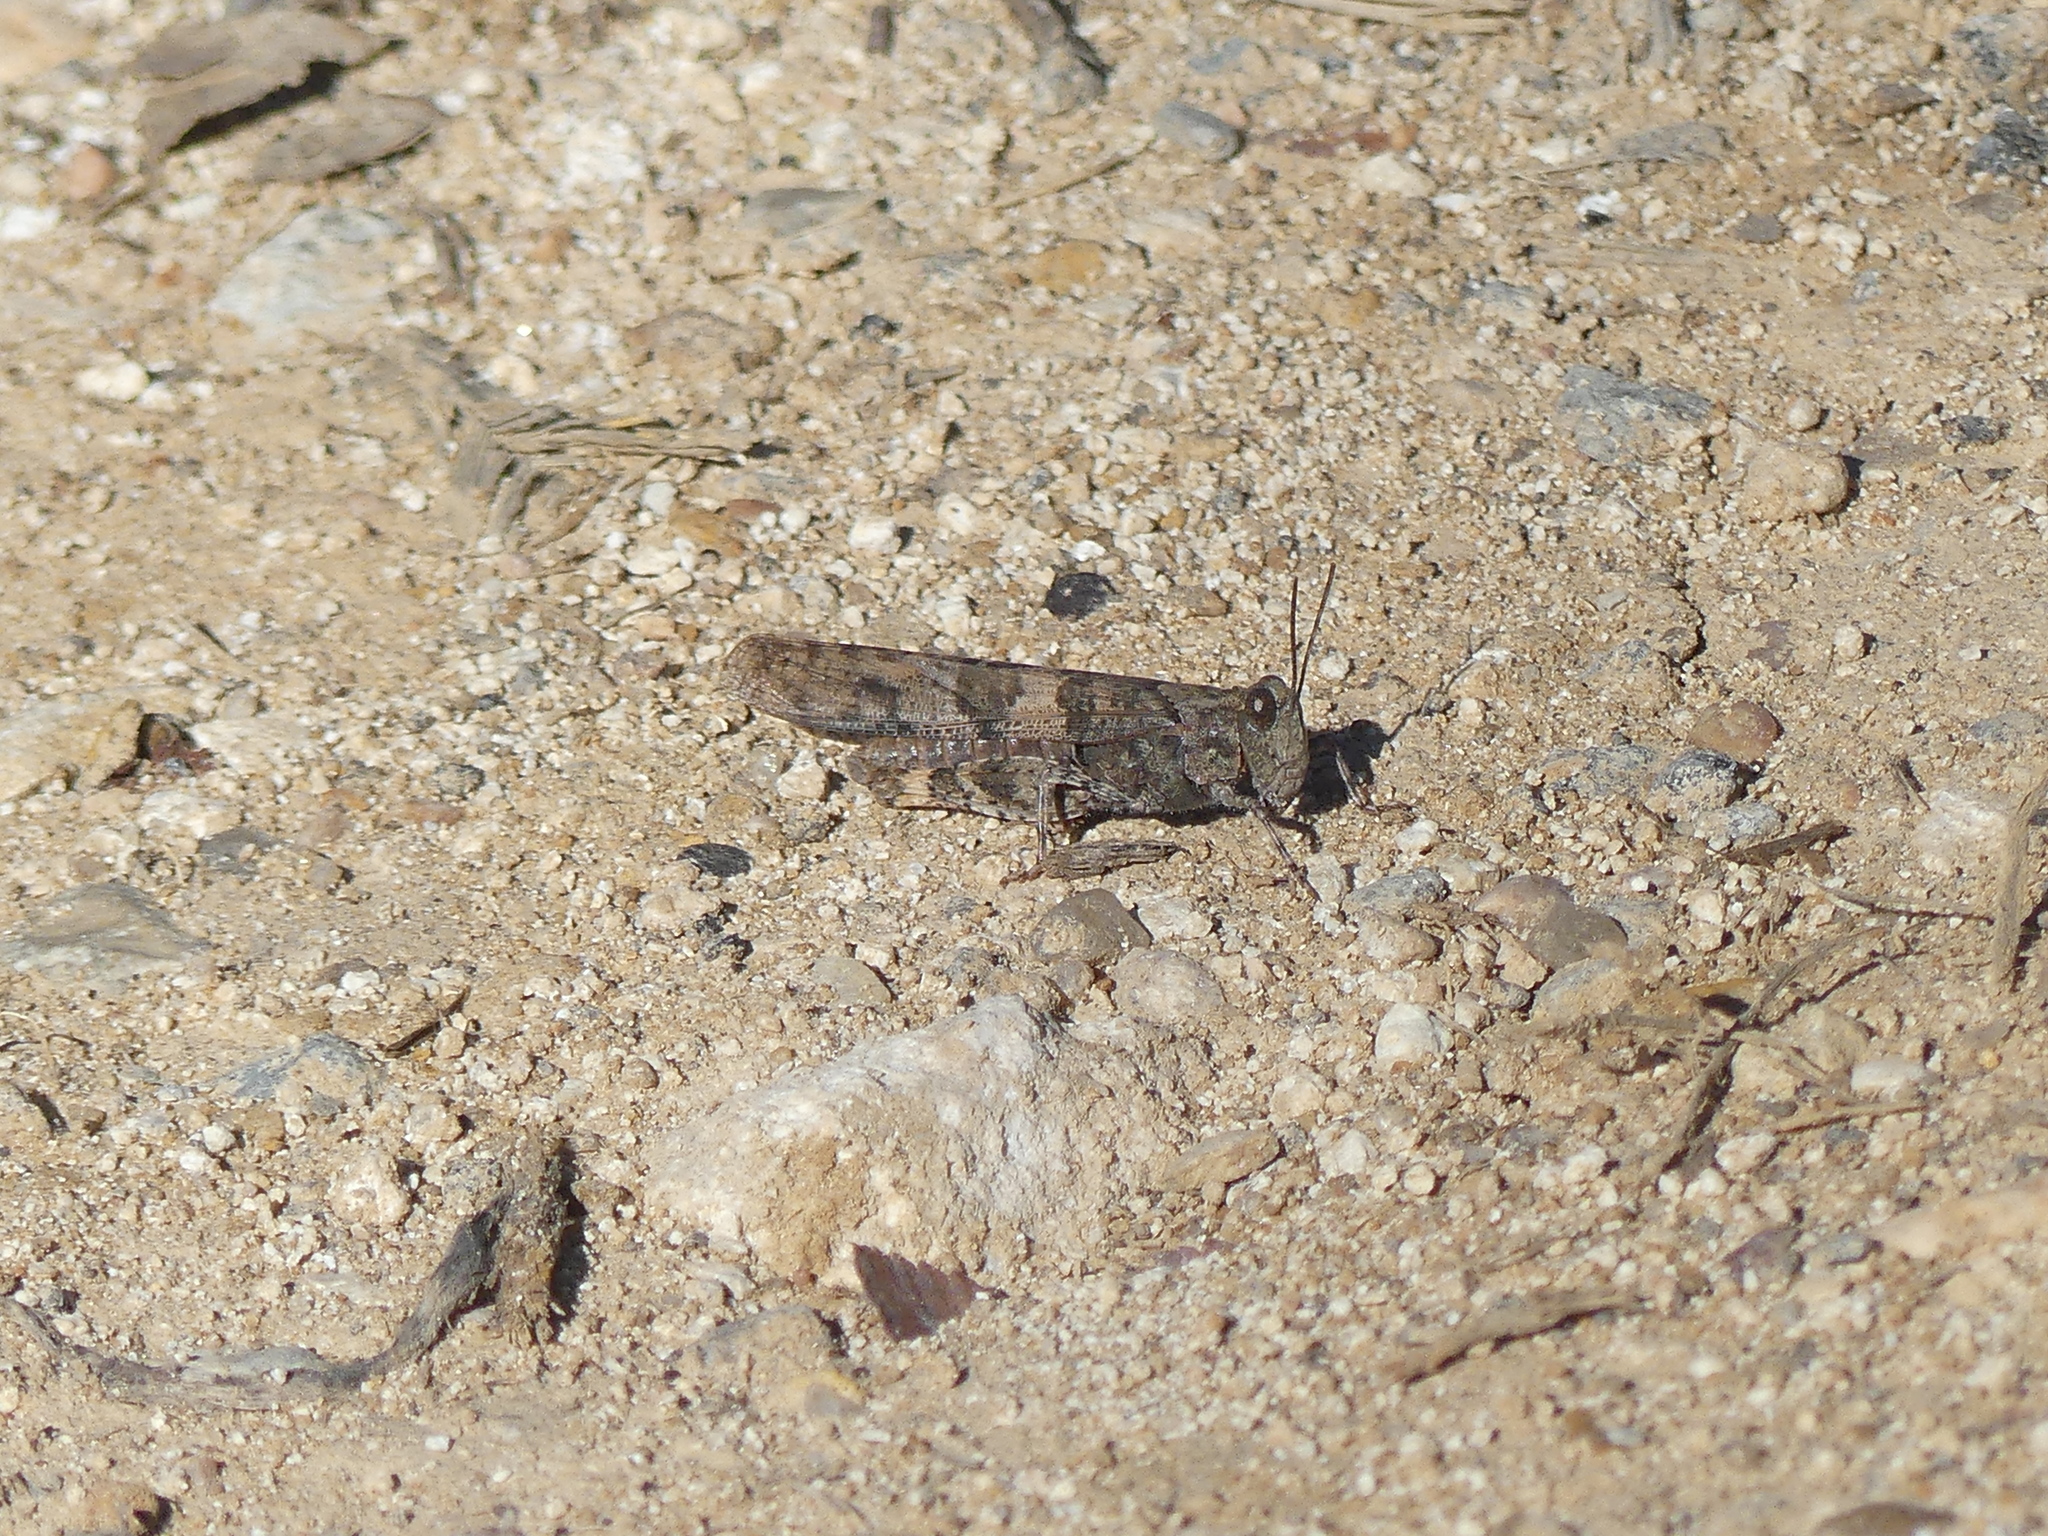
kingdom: Animalia
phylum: Arthropoda
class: Insecta
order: Orthoptera
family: Acrididae
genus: Trimerotropis
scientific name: Trimerotropis pallidipennis
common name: Pallid-winged grasshopper
